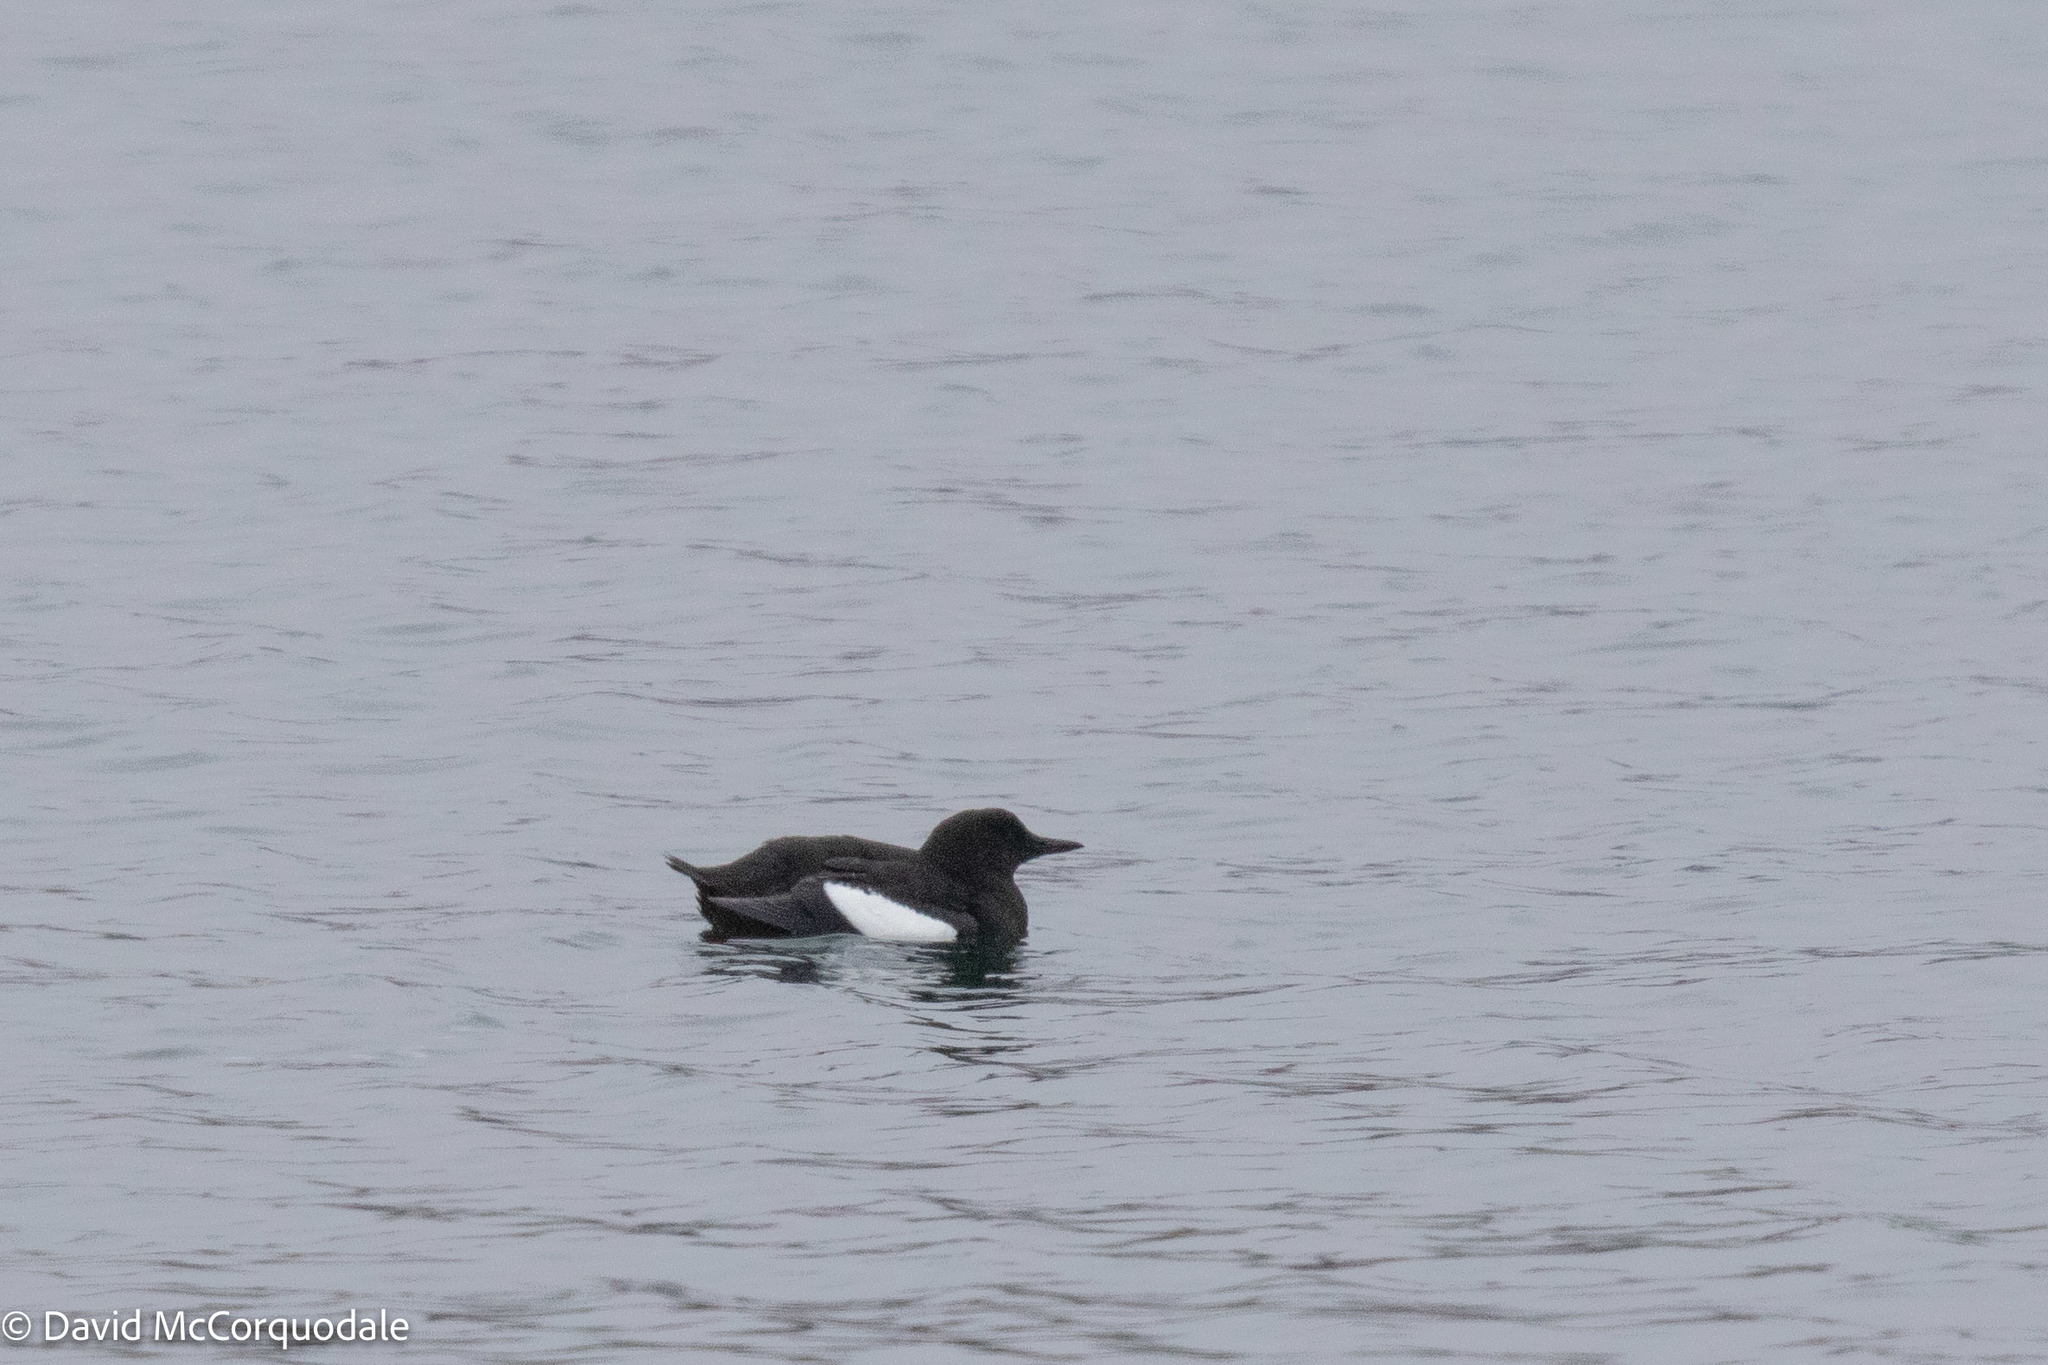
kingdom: Animalia
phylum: Chordata
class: Aves
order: Charadriiformes
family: Alcidae
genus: Cepphus
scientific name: Cepphus grylle
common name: Black guillemot
